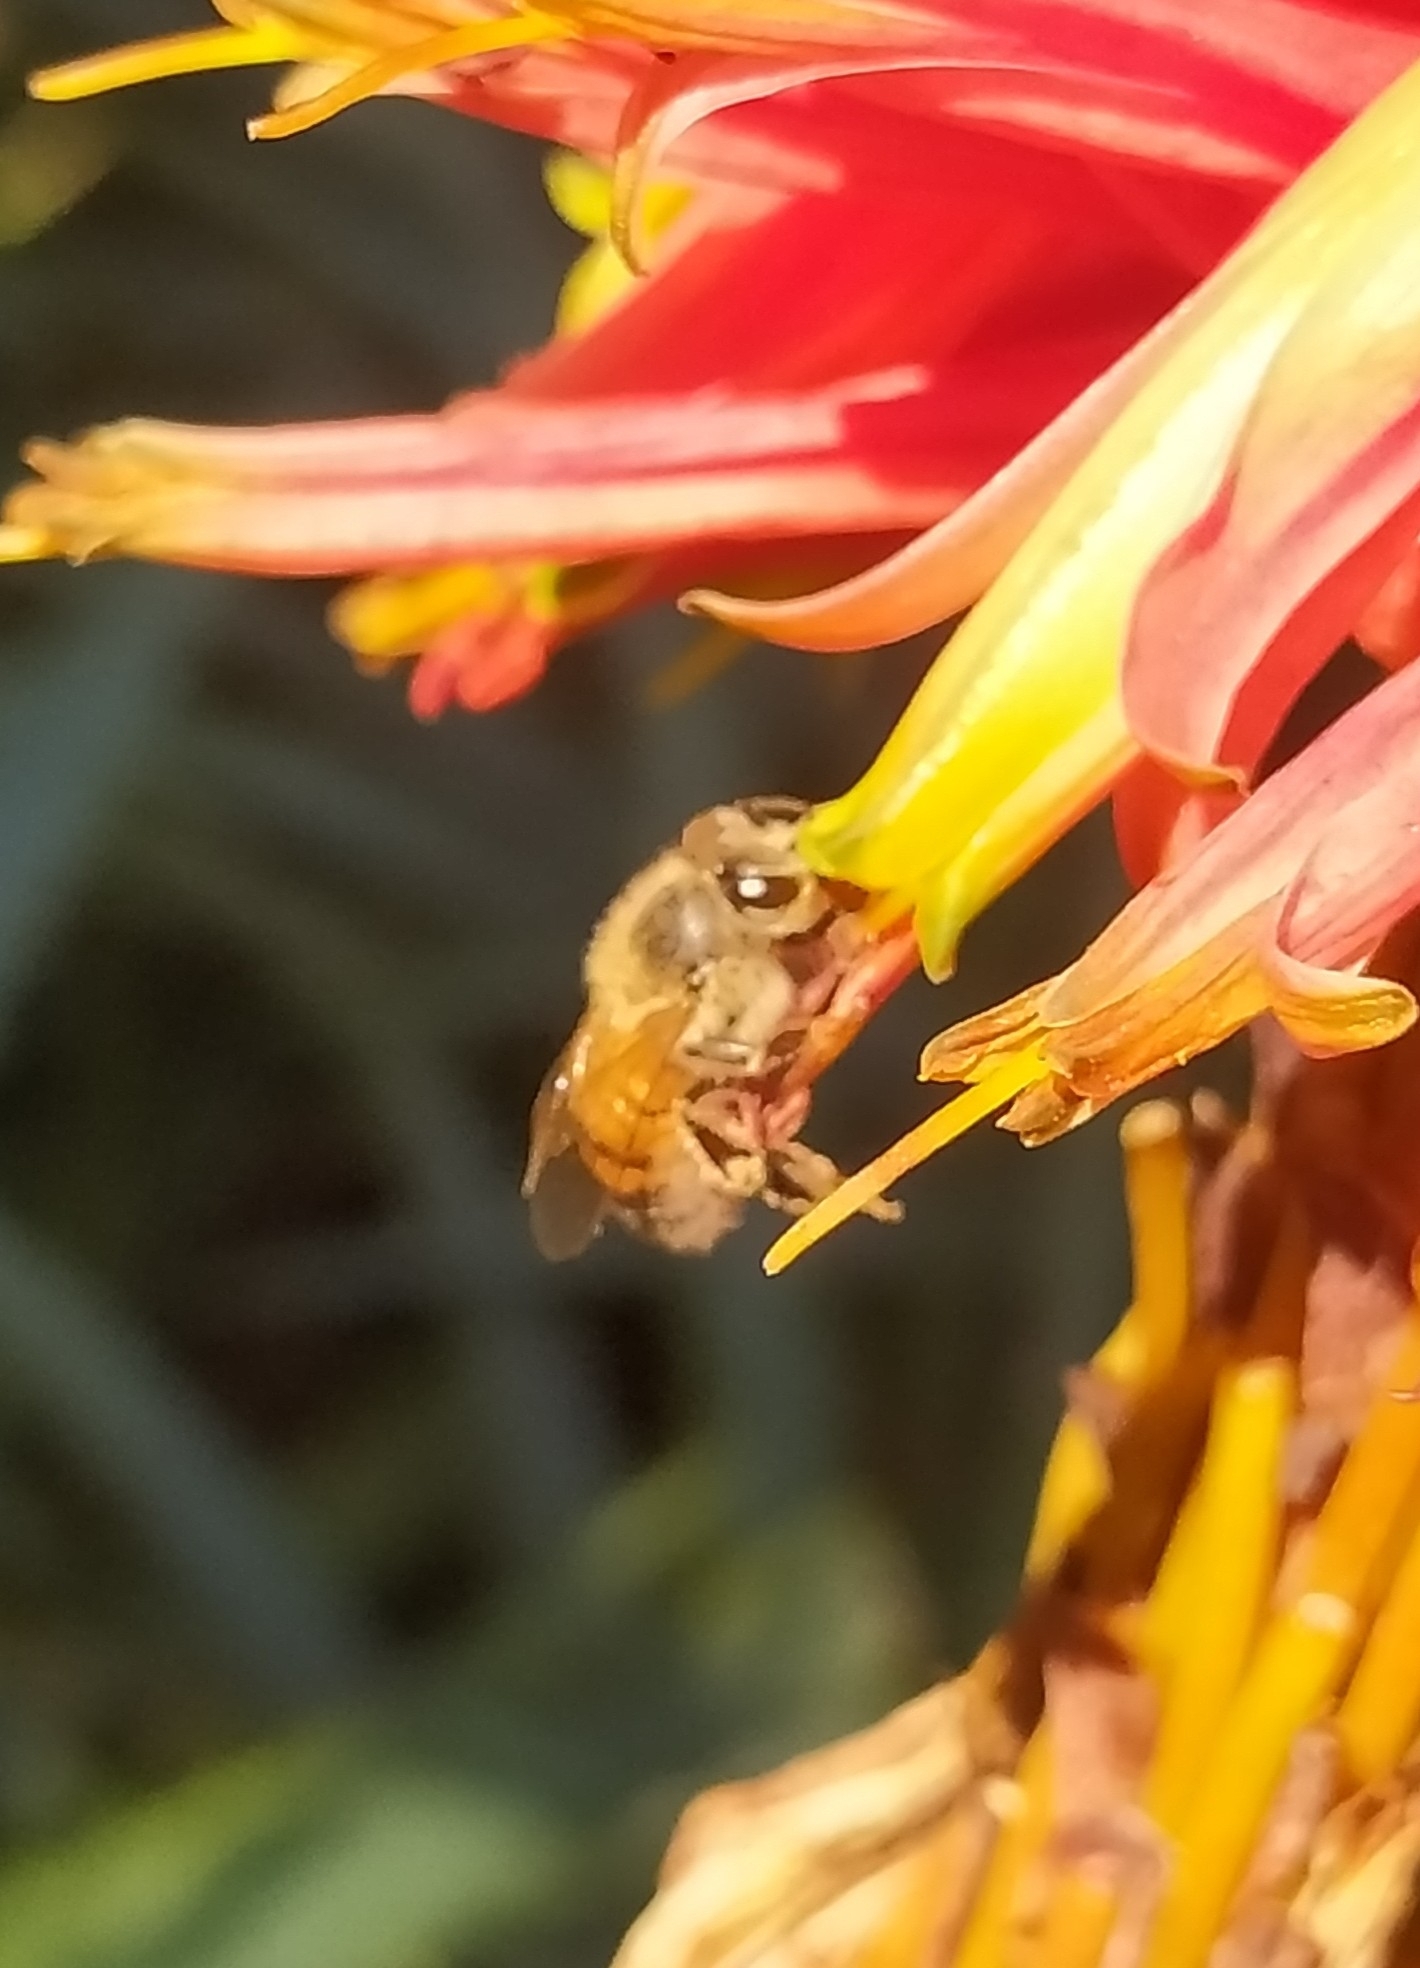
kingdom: Animalia
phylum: Arthropoda
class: Insecta
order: Hymenoptera
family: Apidae
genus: Apis
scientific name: Apis mellifera
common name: Honey bee
